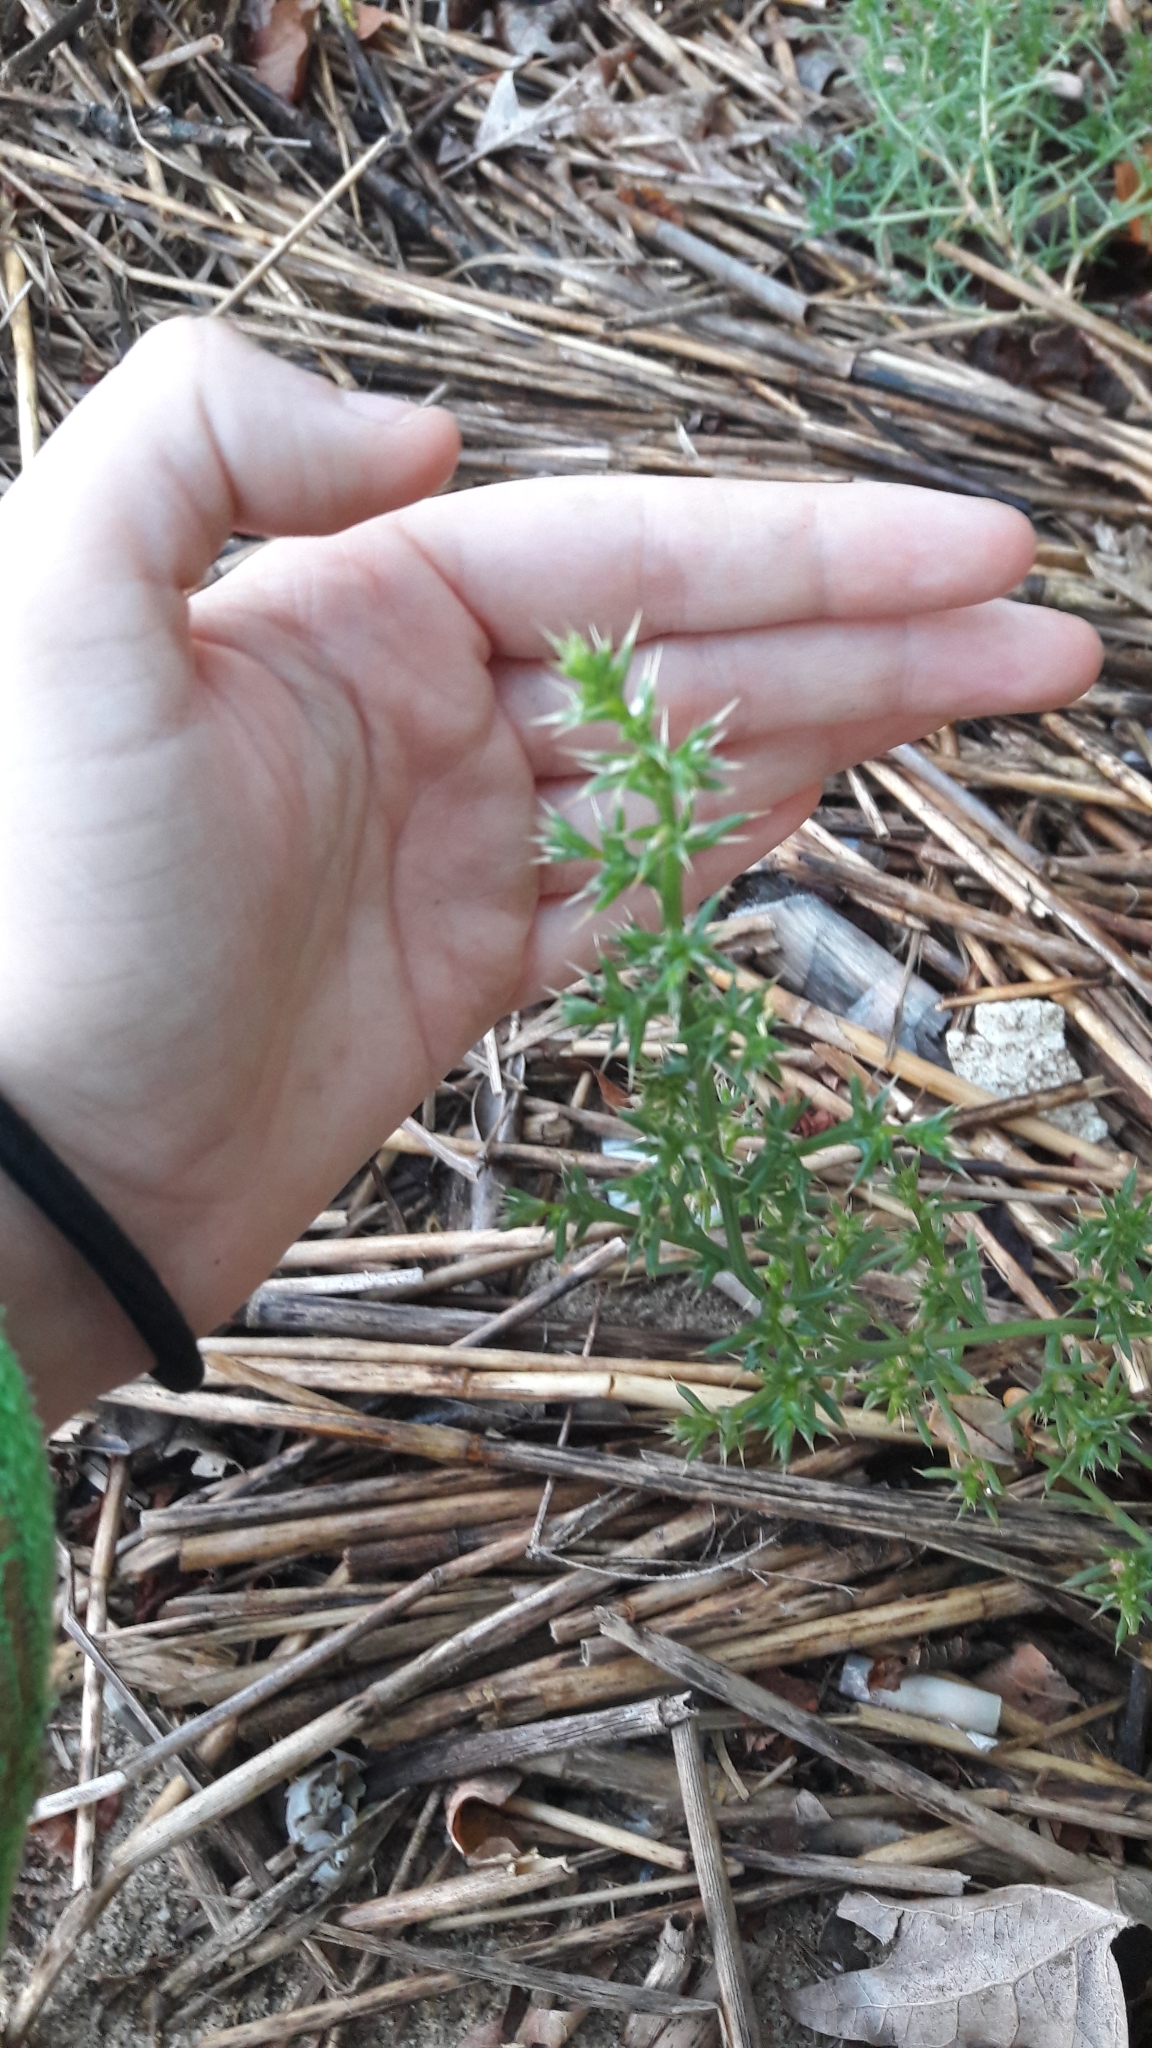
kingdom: Plantae
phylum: Tracheophyta
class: Magnoliopsida
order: Caryophyllales
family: Amaranthaceae
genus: Salsola
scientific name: Salsola kali
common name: Saltwort
